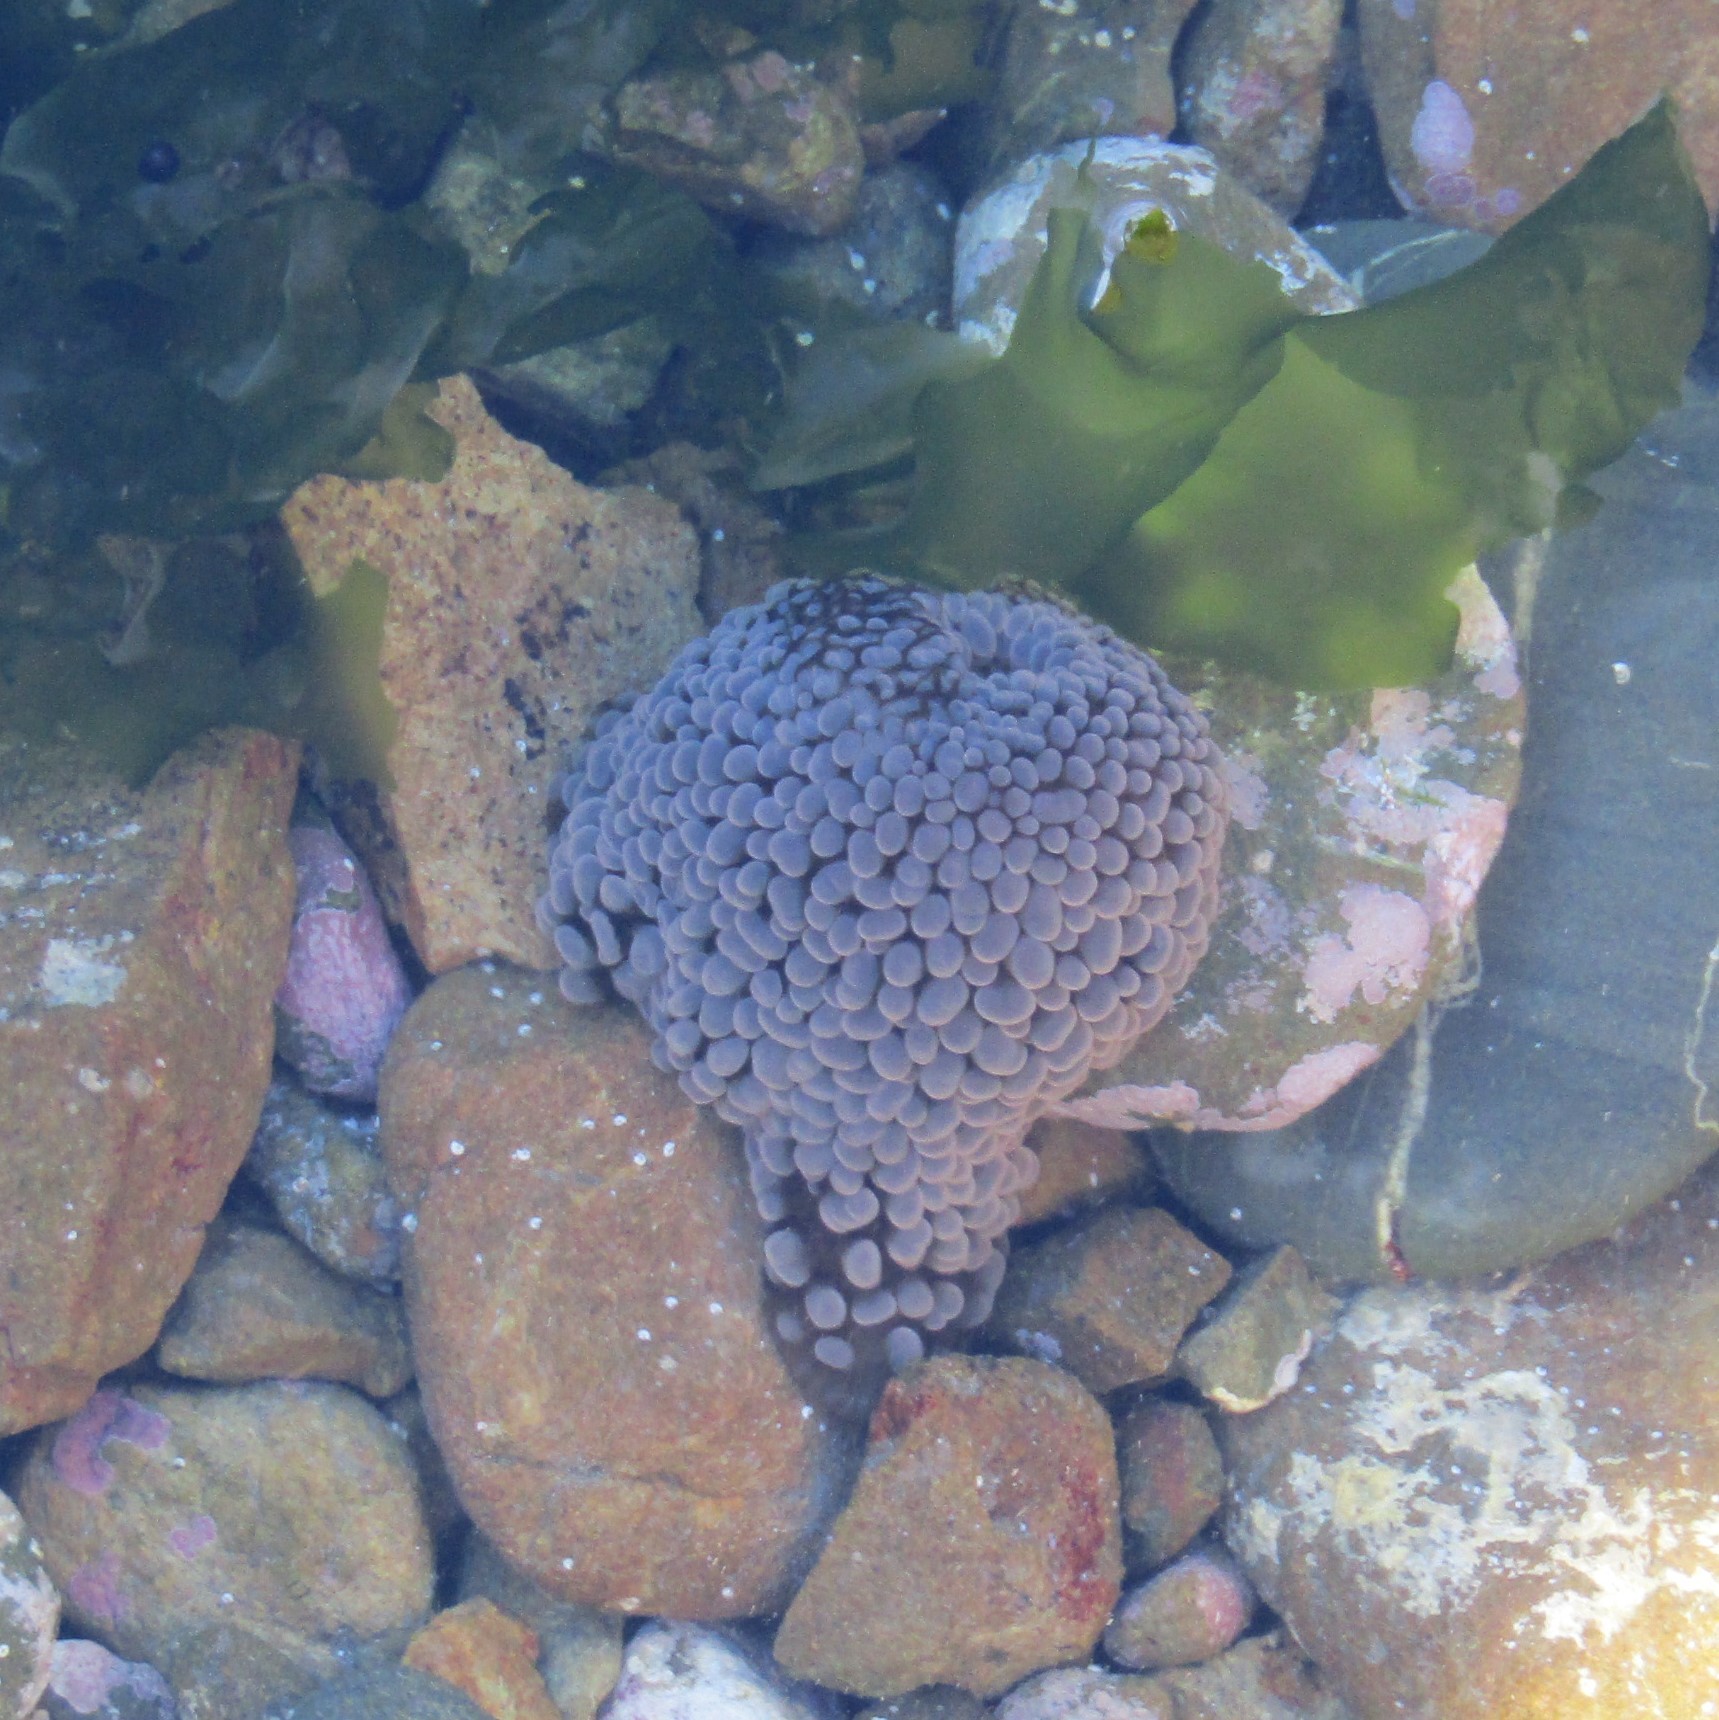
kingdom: Animalia
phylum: Cnidaria
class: Anthozoa
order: Actiniaria
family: Actiniidae
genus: Phlyctenactis
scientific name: Phlyctenactis tuberculosa
